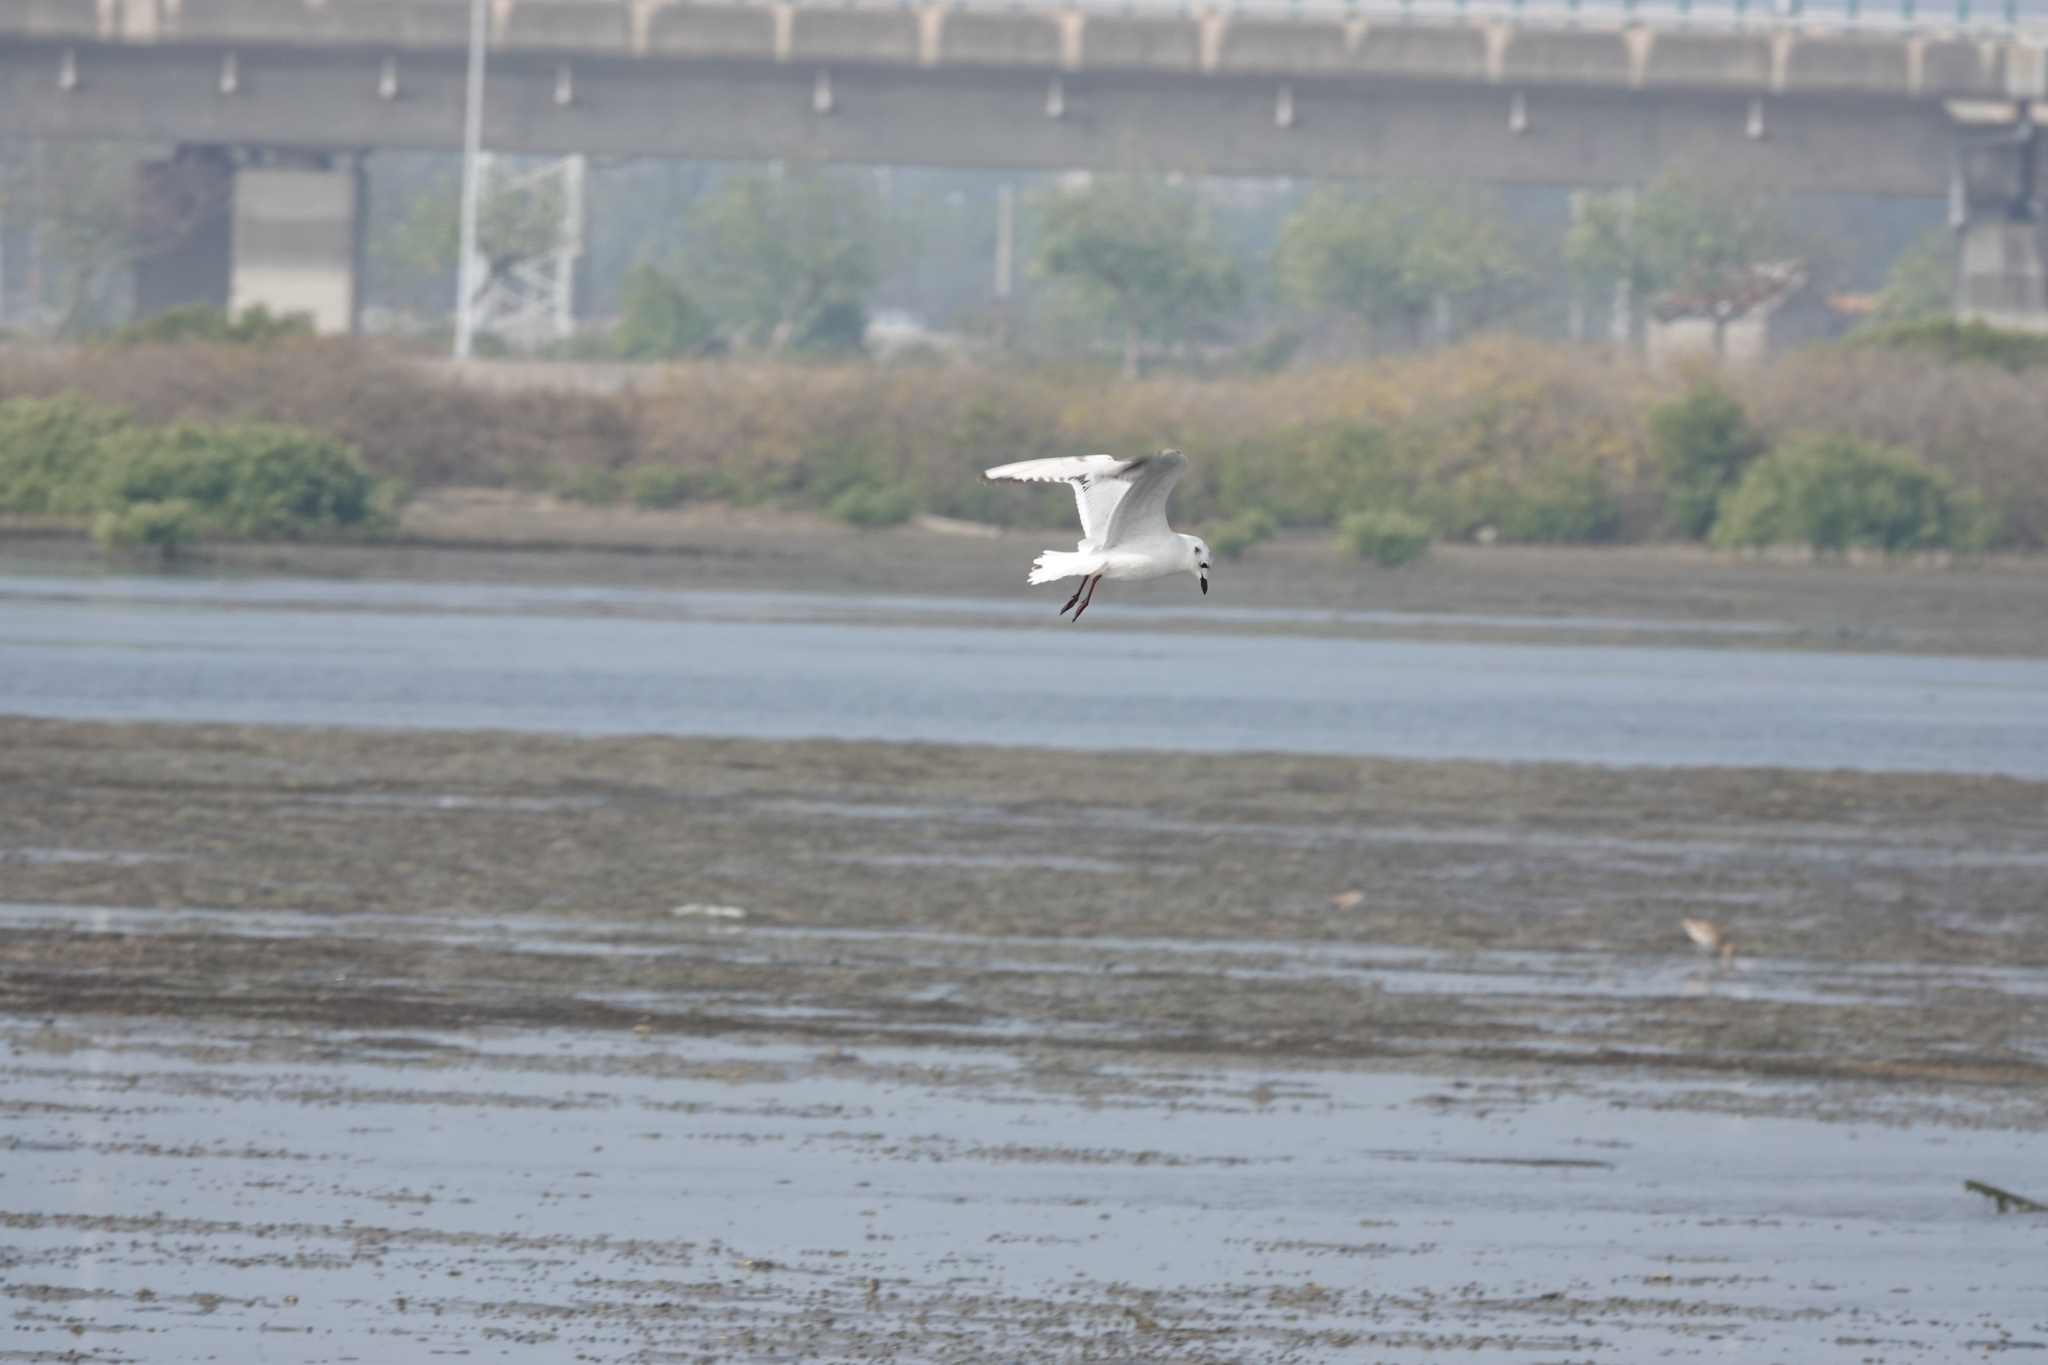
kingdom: Animalia
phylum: Chordata
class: Aves
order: Charadriiformes
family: Laridae
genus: Chroicocephalus
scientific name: Chroicocephalus saundersi
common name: Saunders's gull
